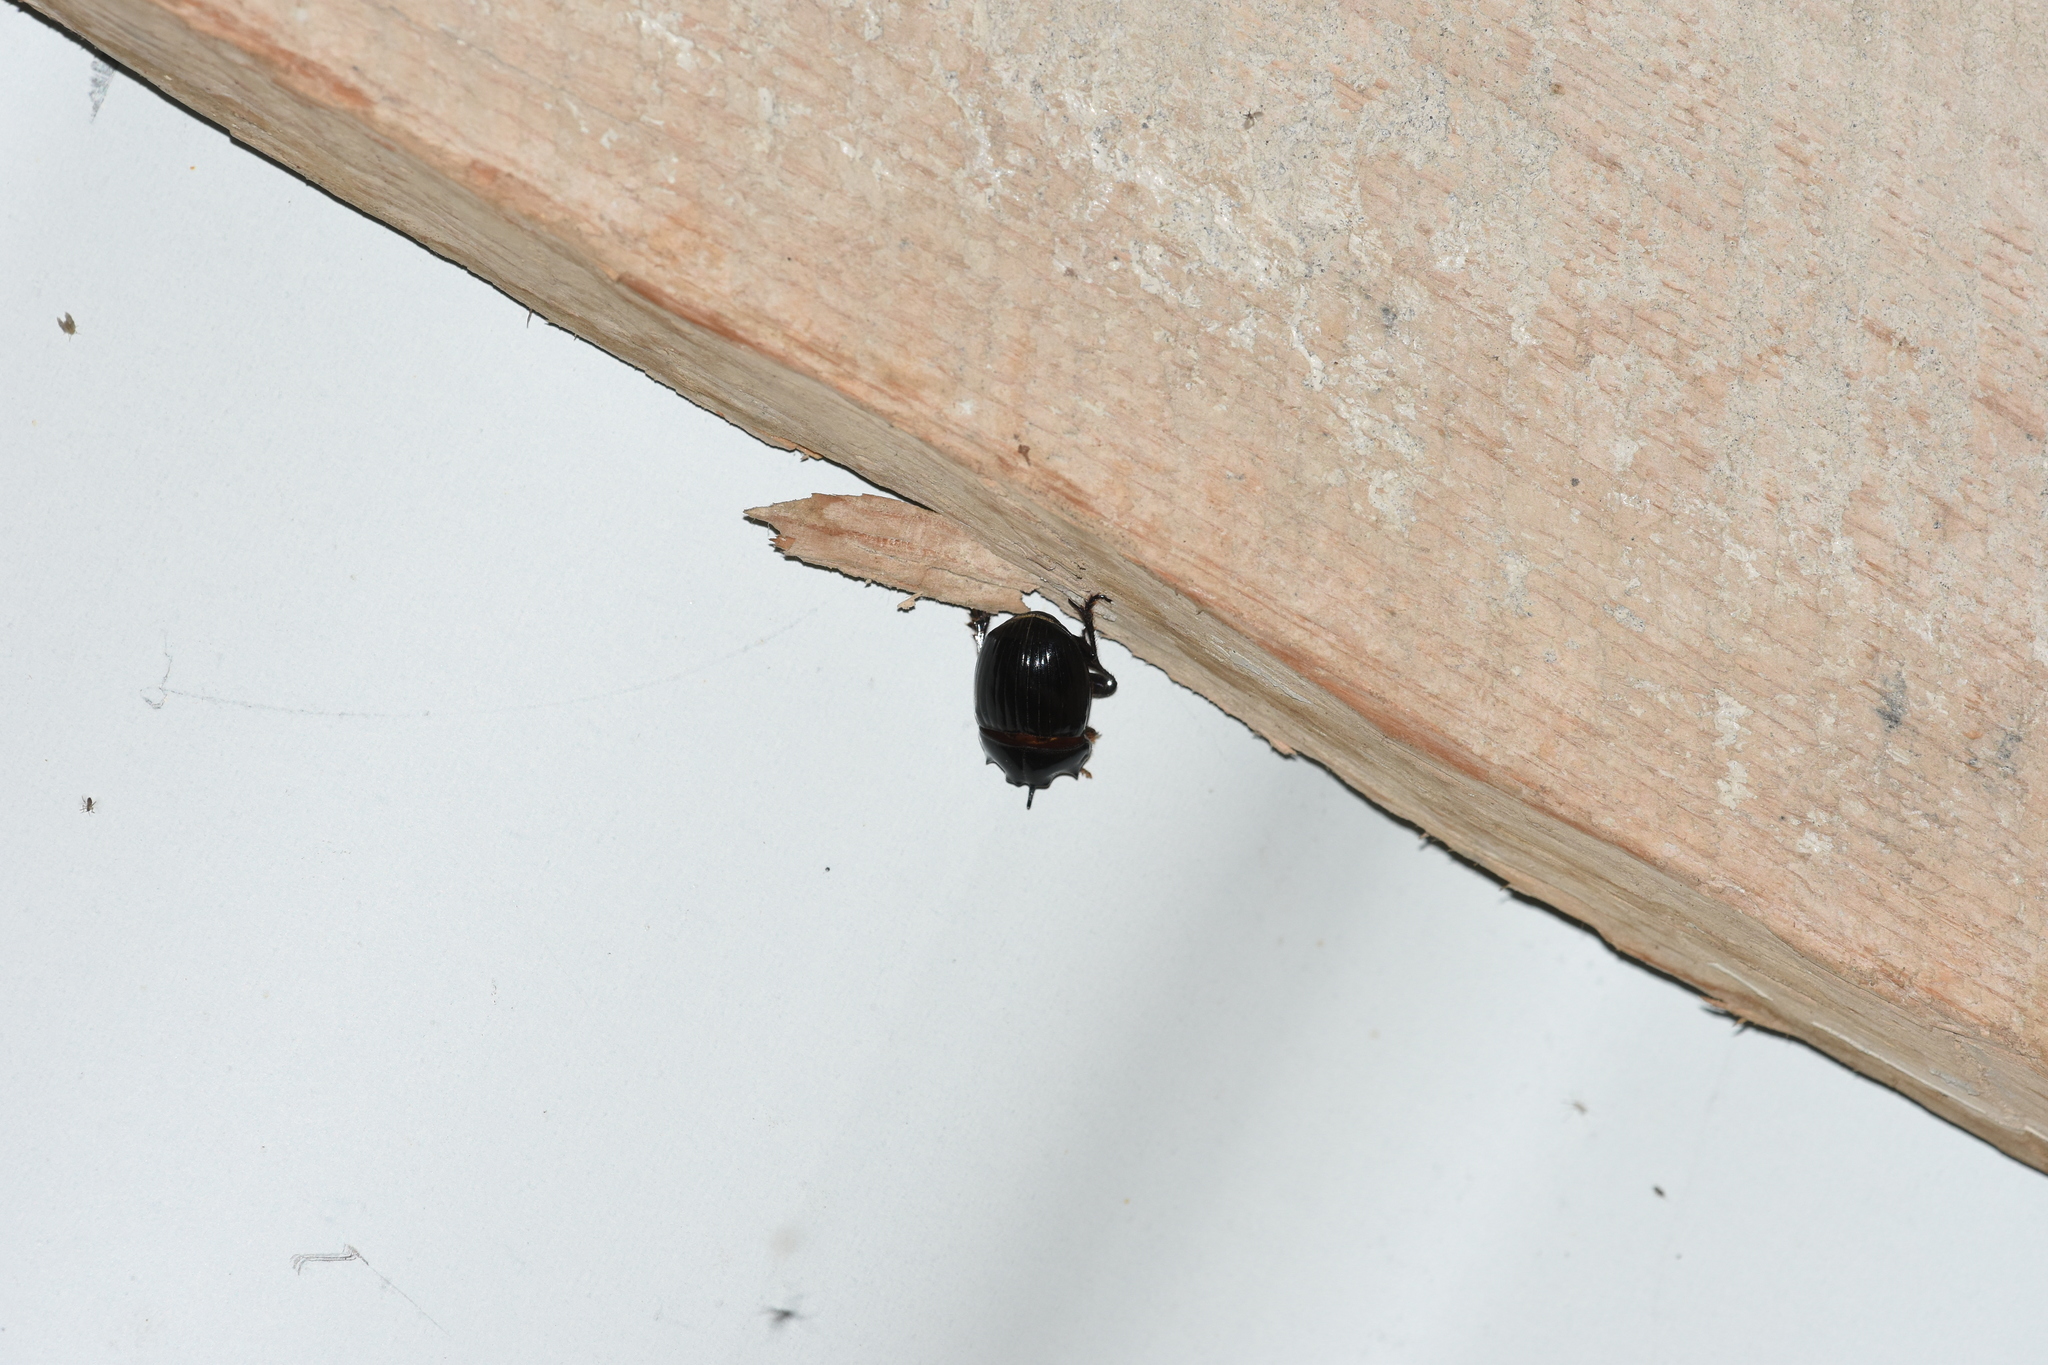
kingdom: Animalia
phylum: Arthropoda
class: Insecta
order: Coleoptera
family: Scarabaeidae
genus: Copris
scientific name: Copris lunaris
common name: Horned dung beetle
